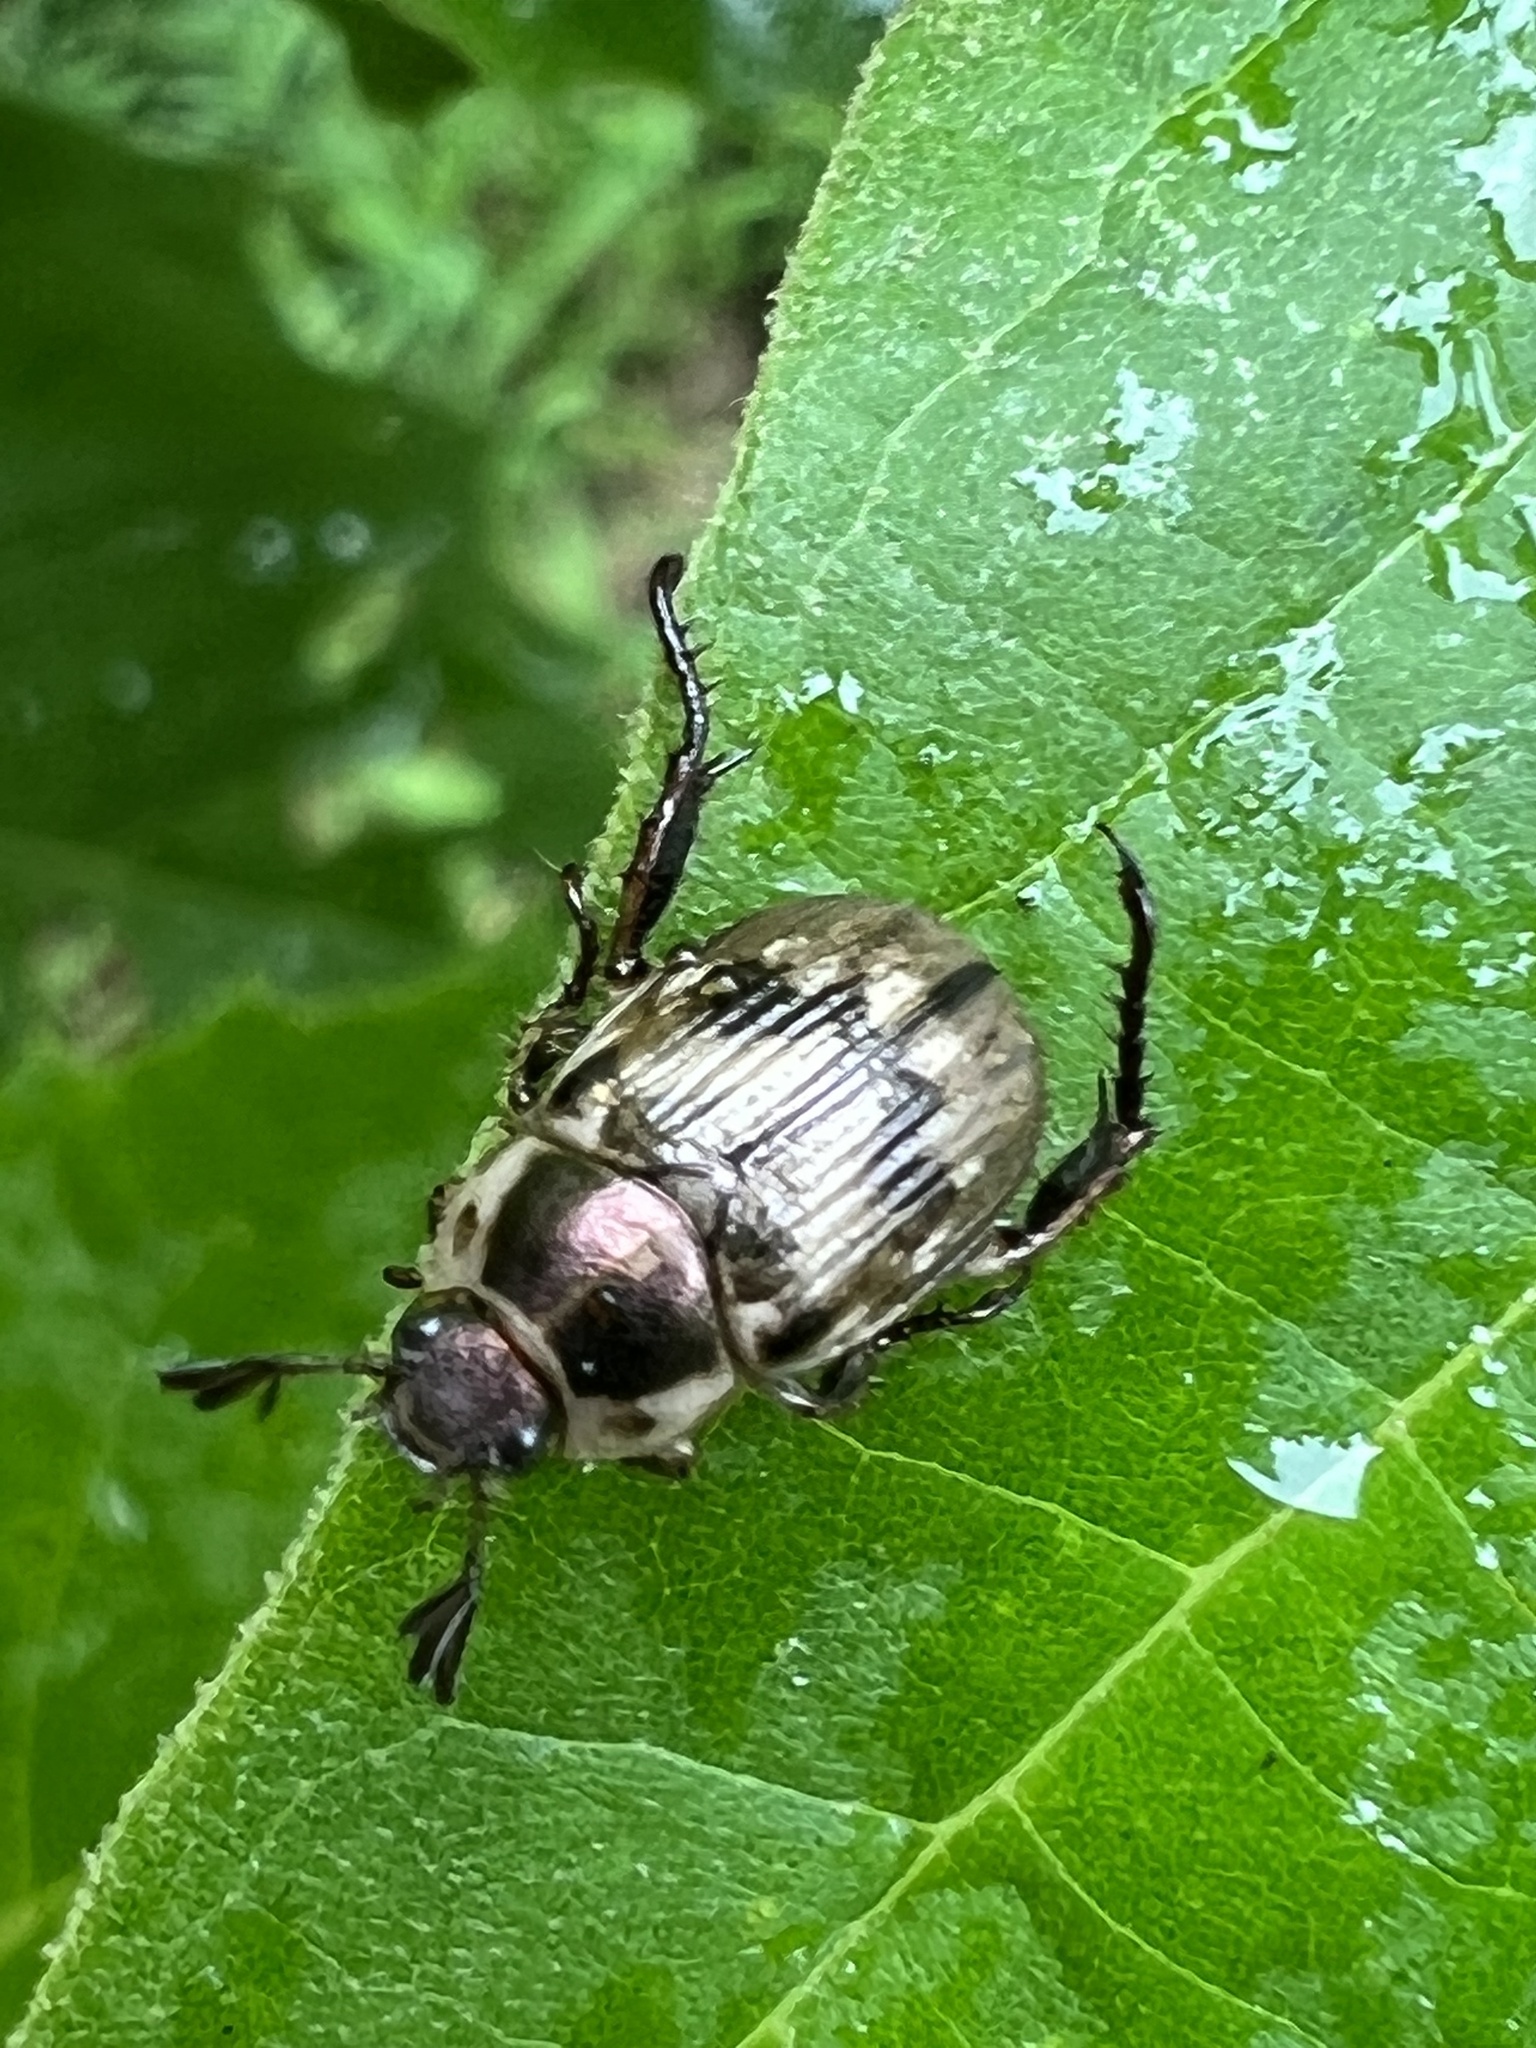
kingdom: Animalia
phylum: Arthropoda
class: Insecta
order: Coleoptera
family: Scarabaeidae
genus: Exomala
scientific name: Exomala orientalis
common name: Oriental beetle
